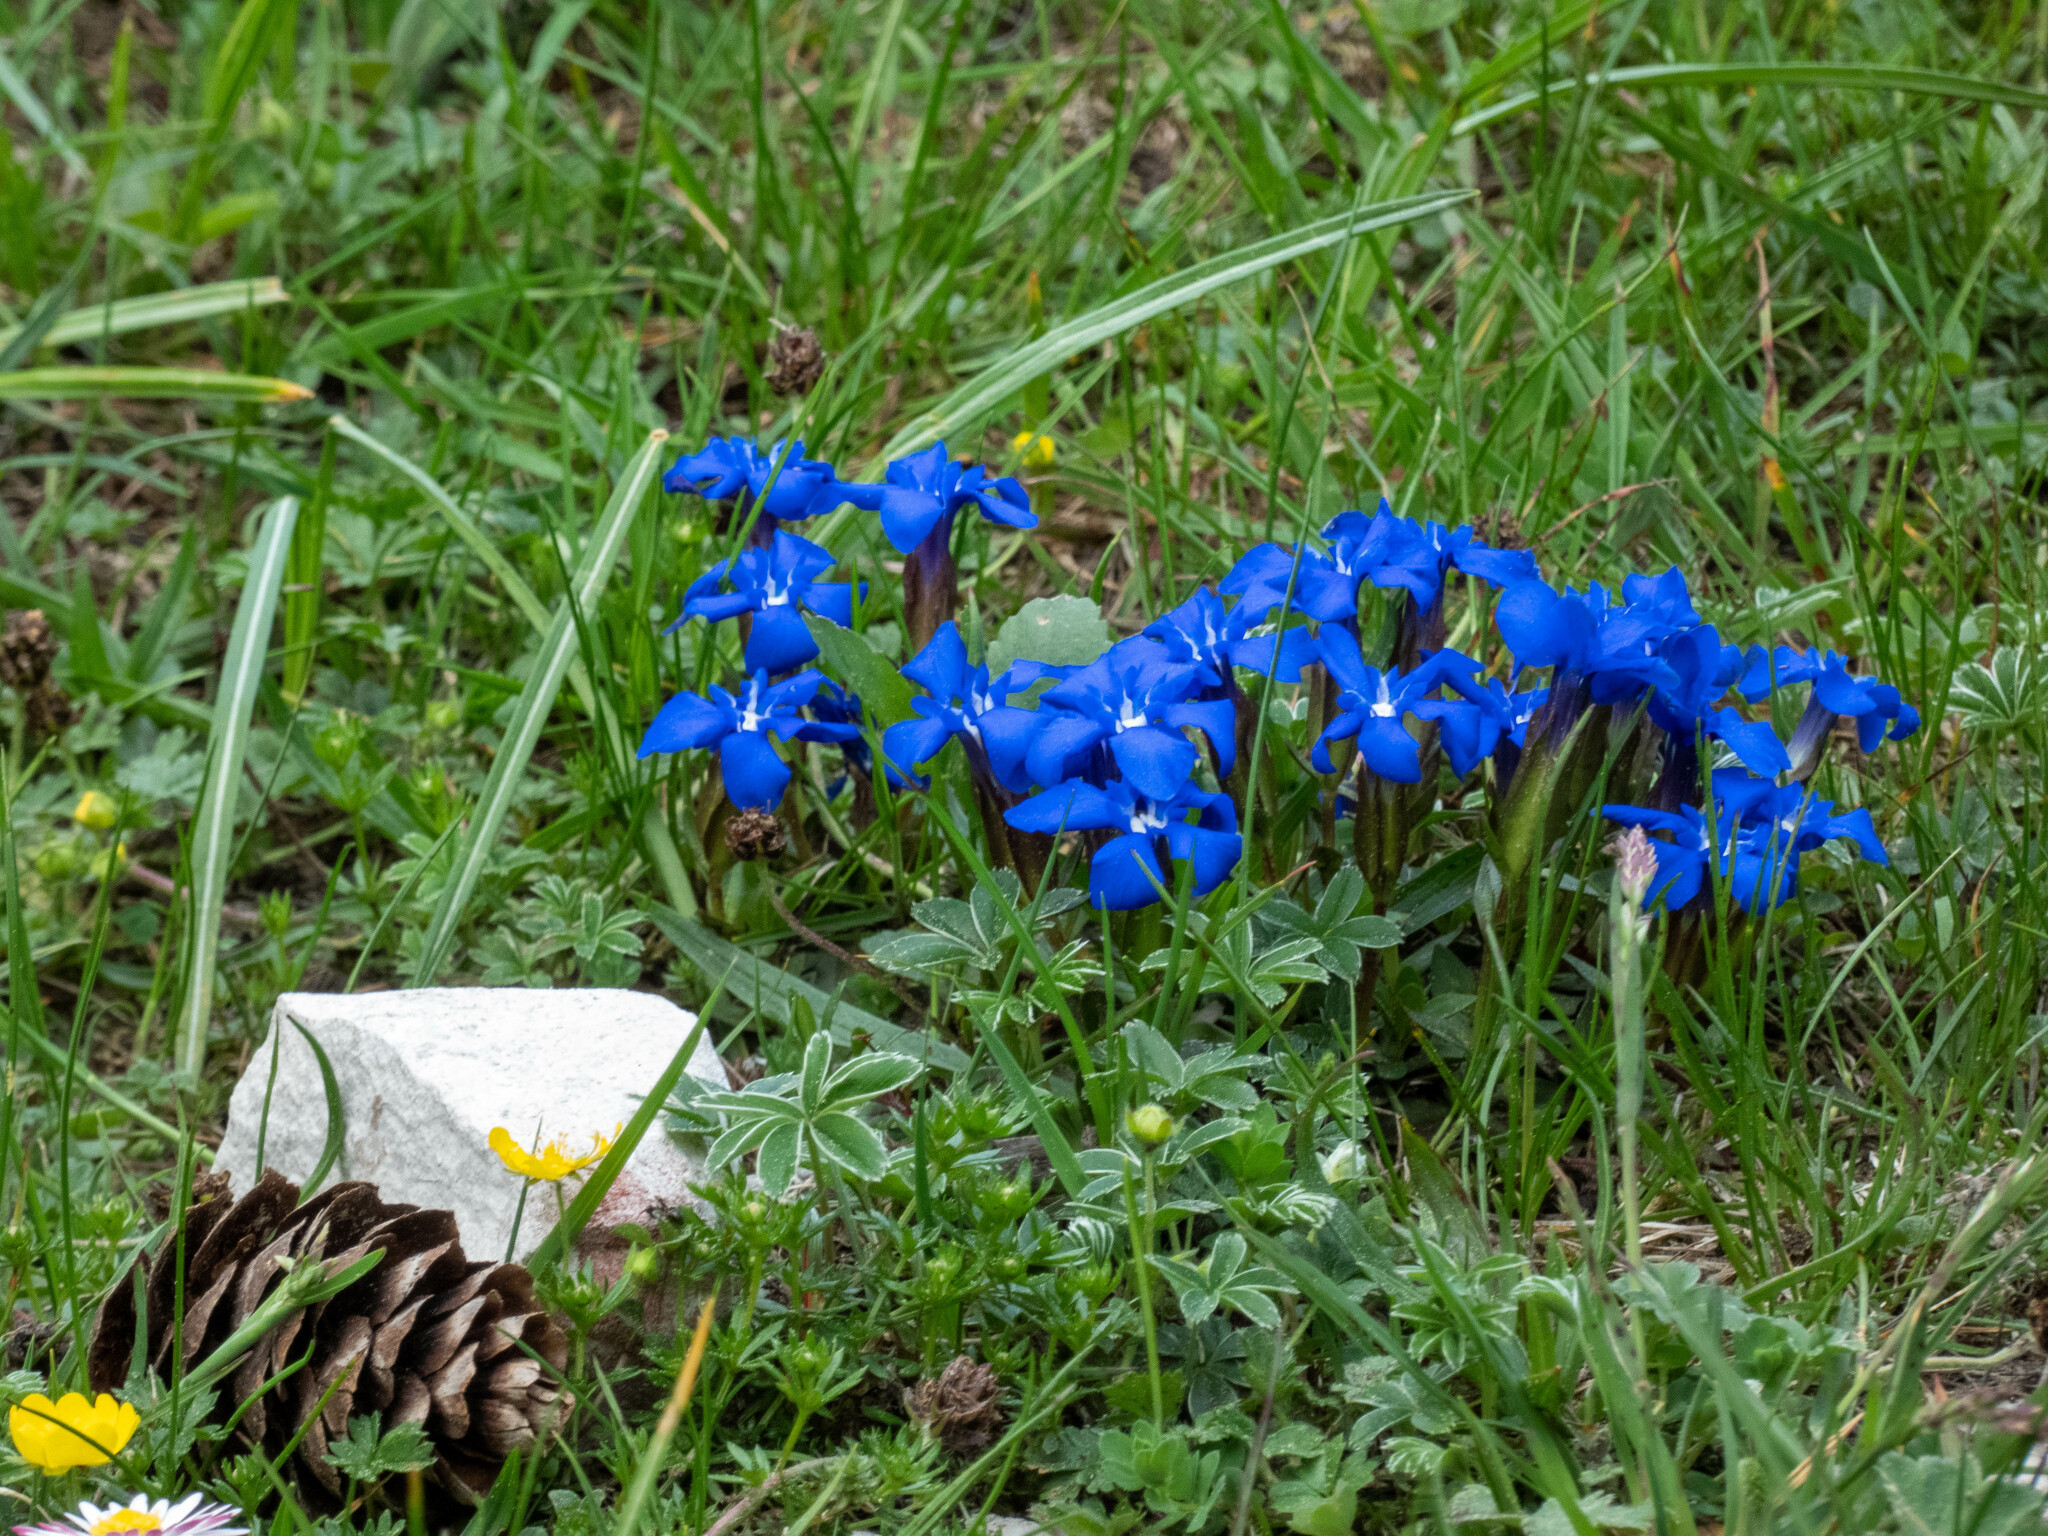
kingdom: Plantae
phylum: Tracheophyta
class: Magnoliopsida
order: Gentianales
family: Gentianaceae
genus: Gentiana
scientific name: Gentiana verna
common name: Spring gentian
